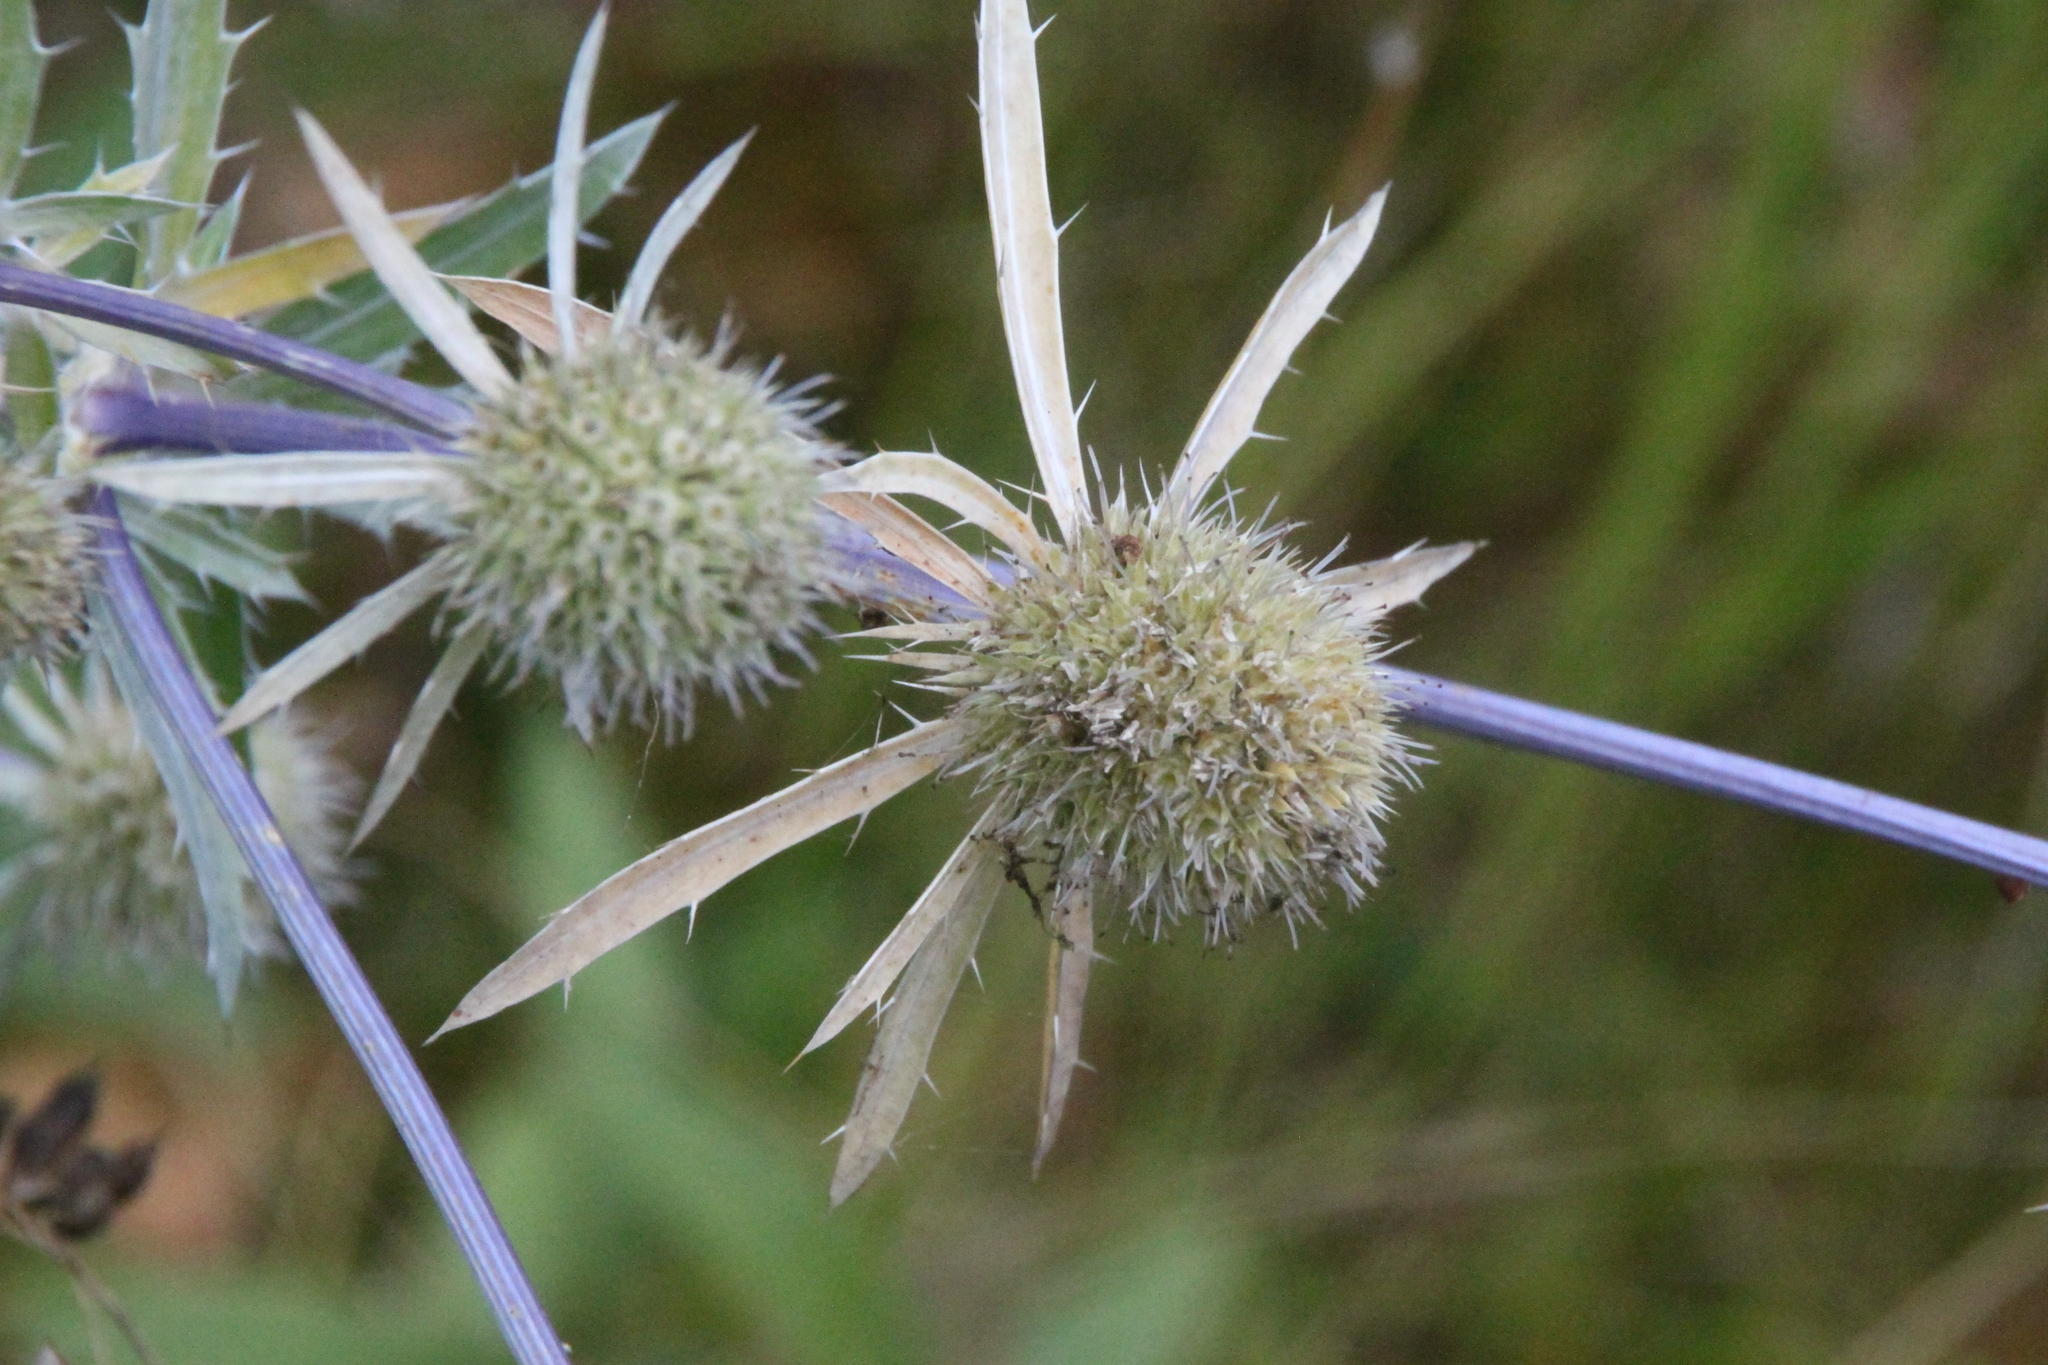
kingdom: Plantae
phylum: Tracheophyta
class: Magnoliopsida
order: Apiales
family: Apiaceae
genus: Eryngium
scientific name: Eryngium planum
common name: Blue eryngo
